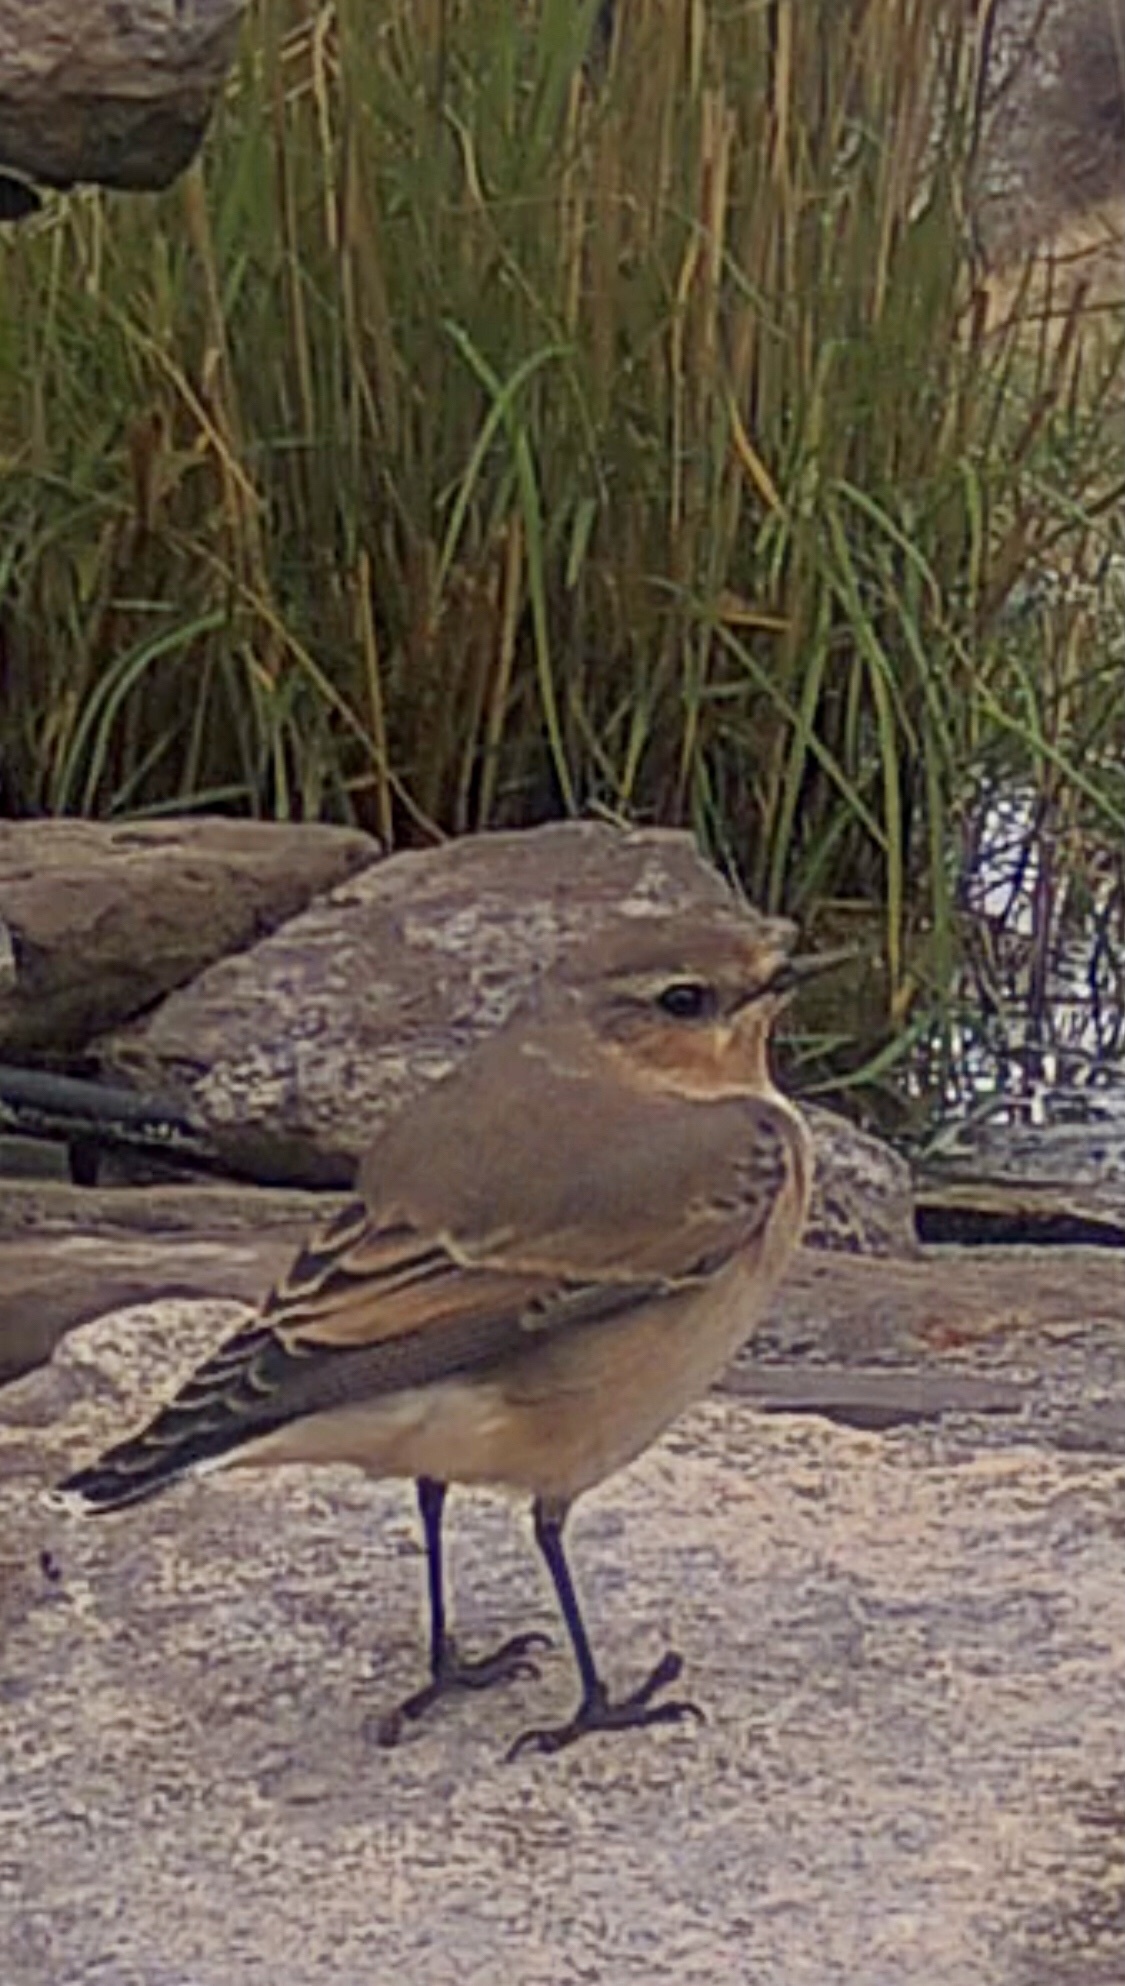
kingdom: Animalia
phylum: Chordata
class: Aves
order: Passeriformes
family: Muscicapidae
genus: Oenanthe
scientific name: Oenanthe oenanthe
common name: Northern wheatear
